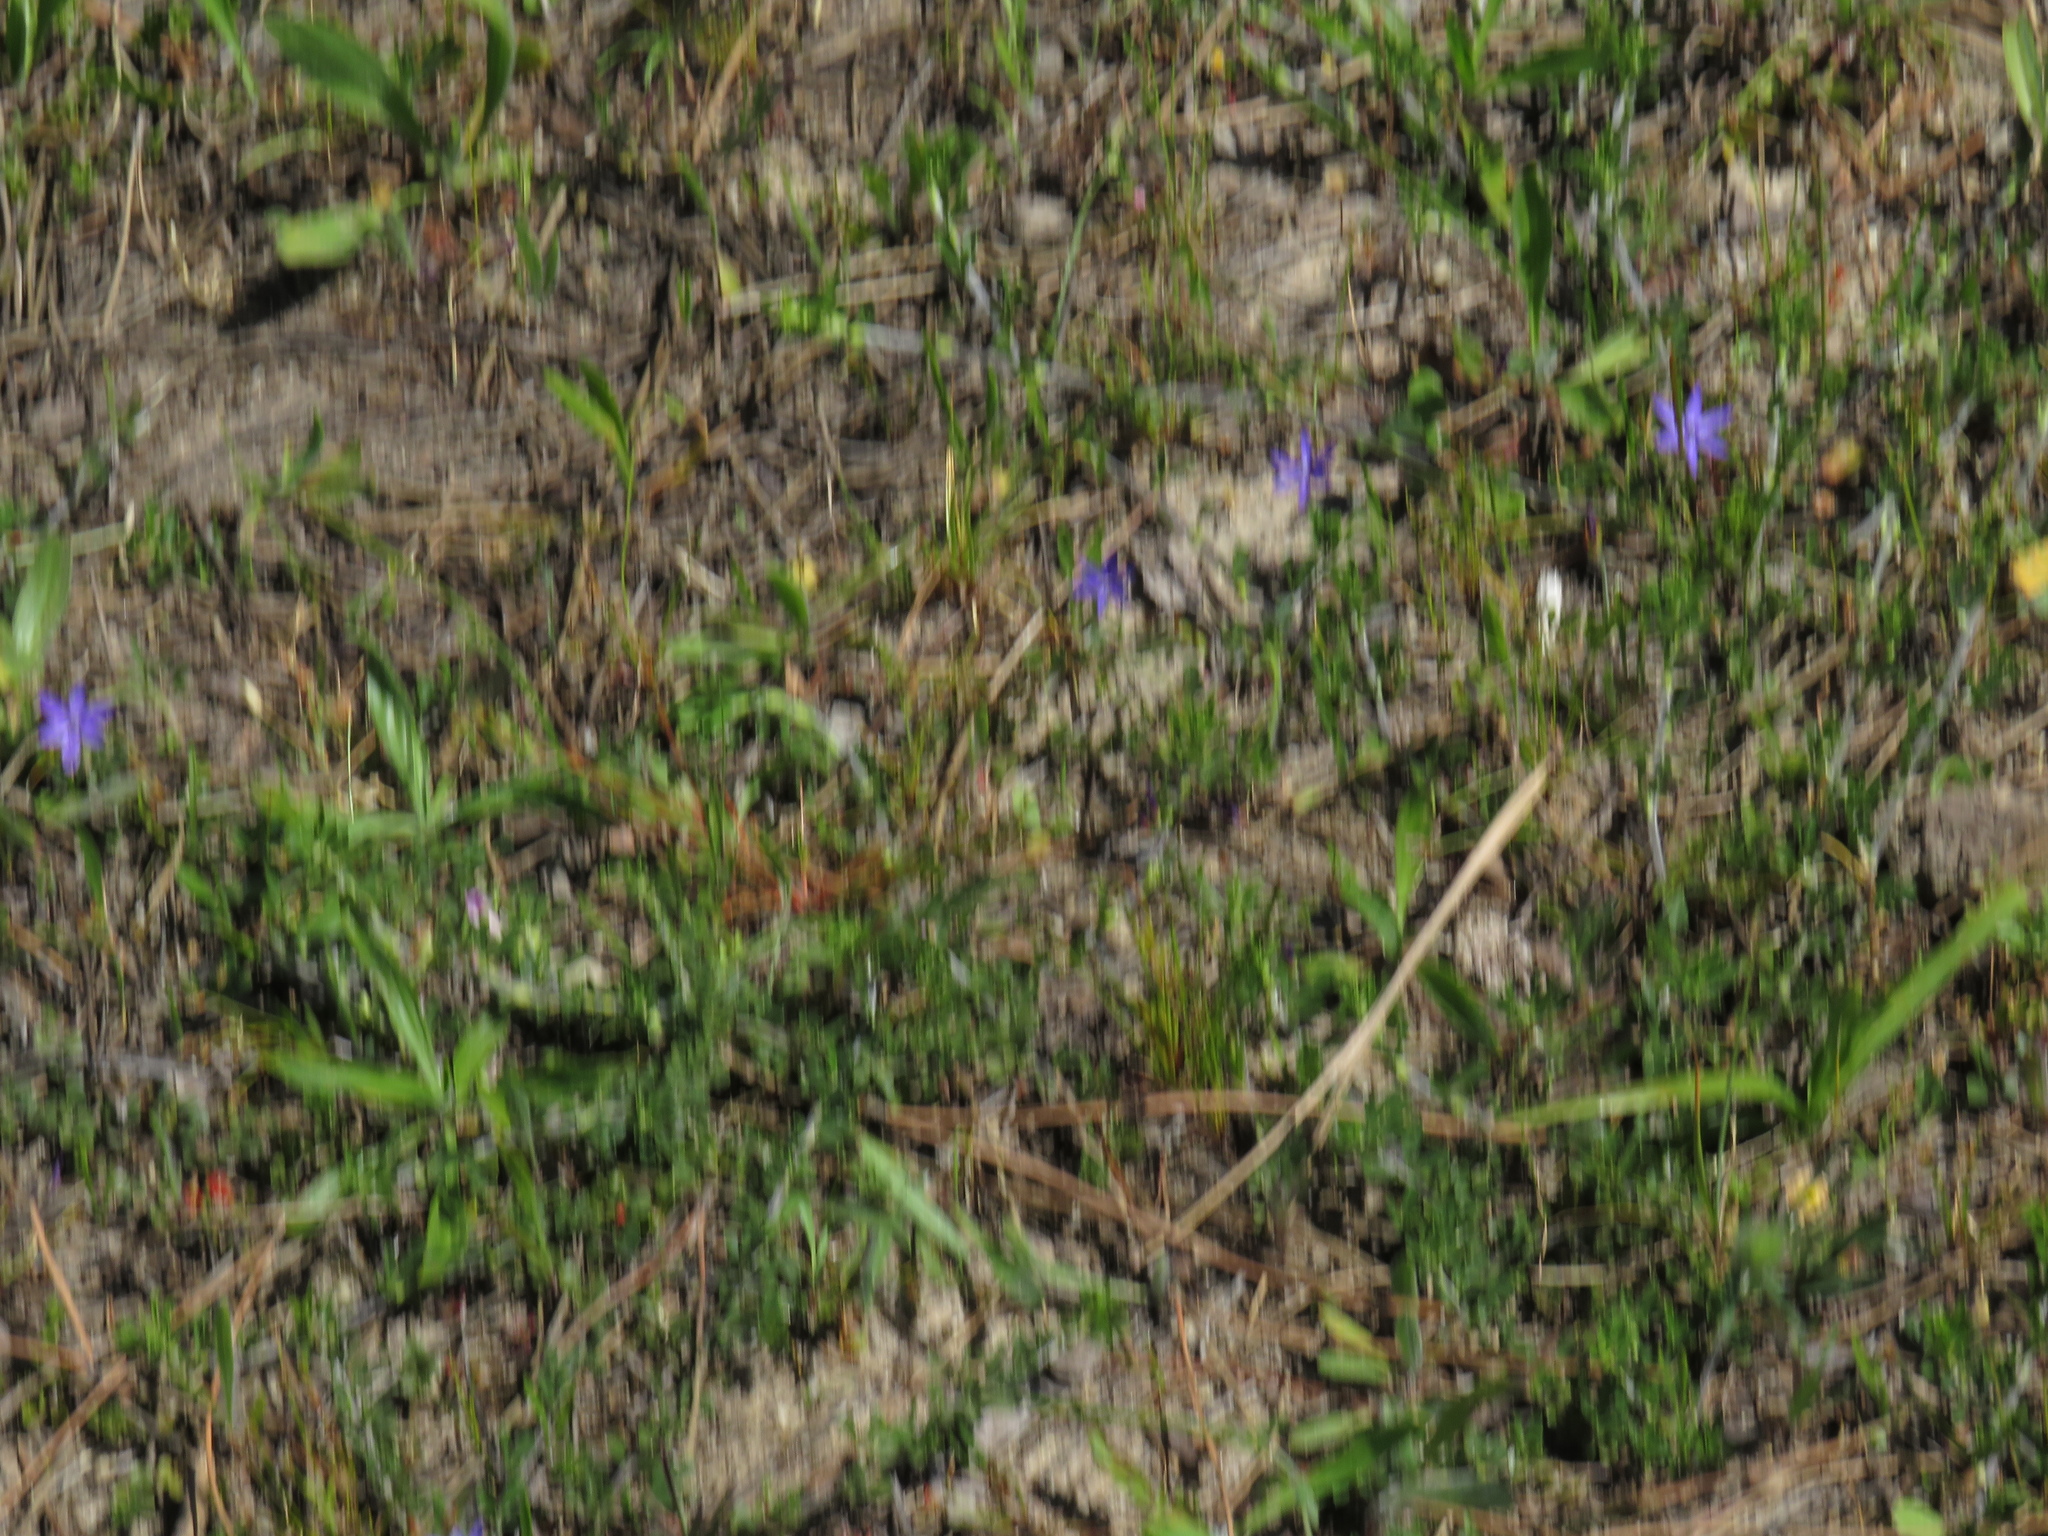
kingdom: Plantae
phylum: Tracheophyta
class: Liliopsida
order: Asparagales
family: Iridaceae
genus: Geissorhiza
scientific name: Geissorhiza aspera
